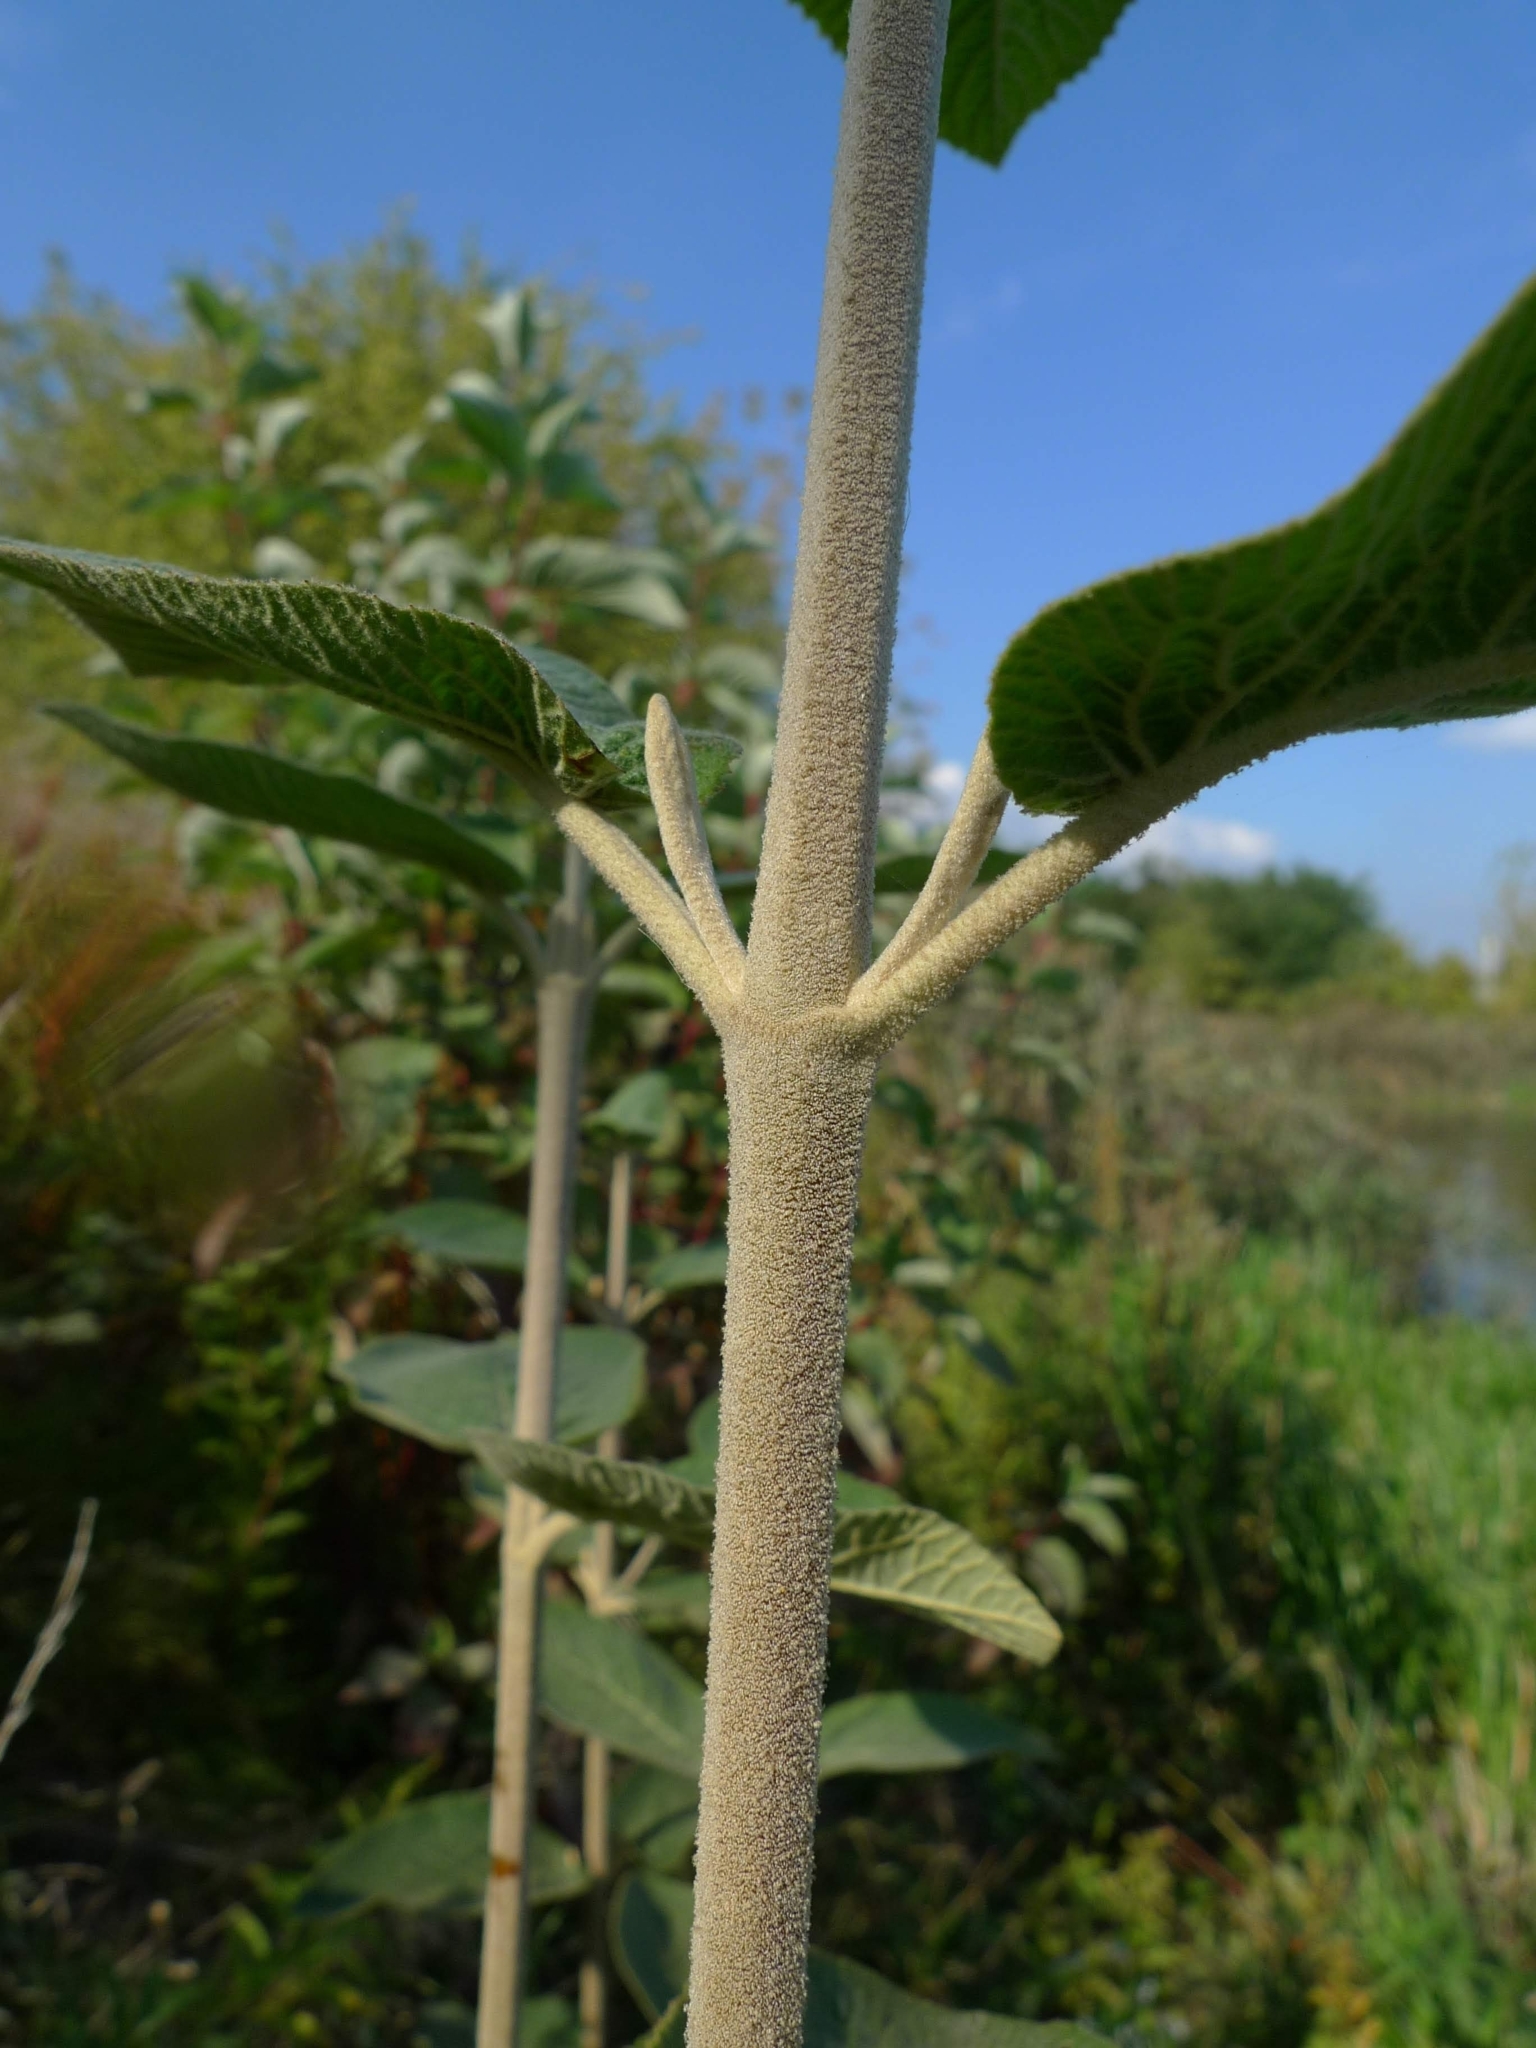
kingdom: Plantae
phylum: Tracheophyta
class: Magnoliopsida
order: Dipsacales
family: Viburnaceae
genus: Viburnum
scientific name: Viburnum lantana
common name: Wayfaring tree
